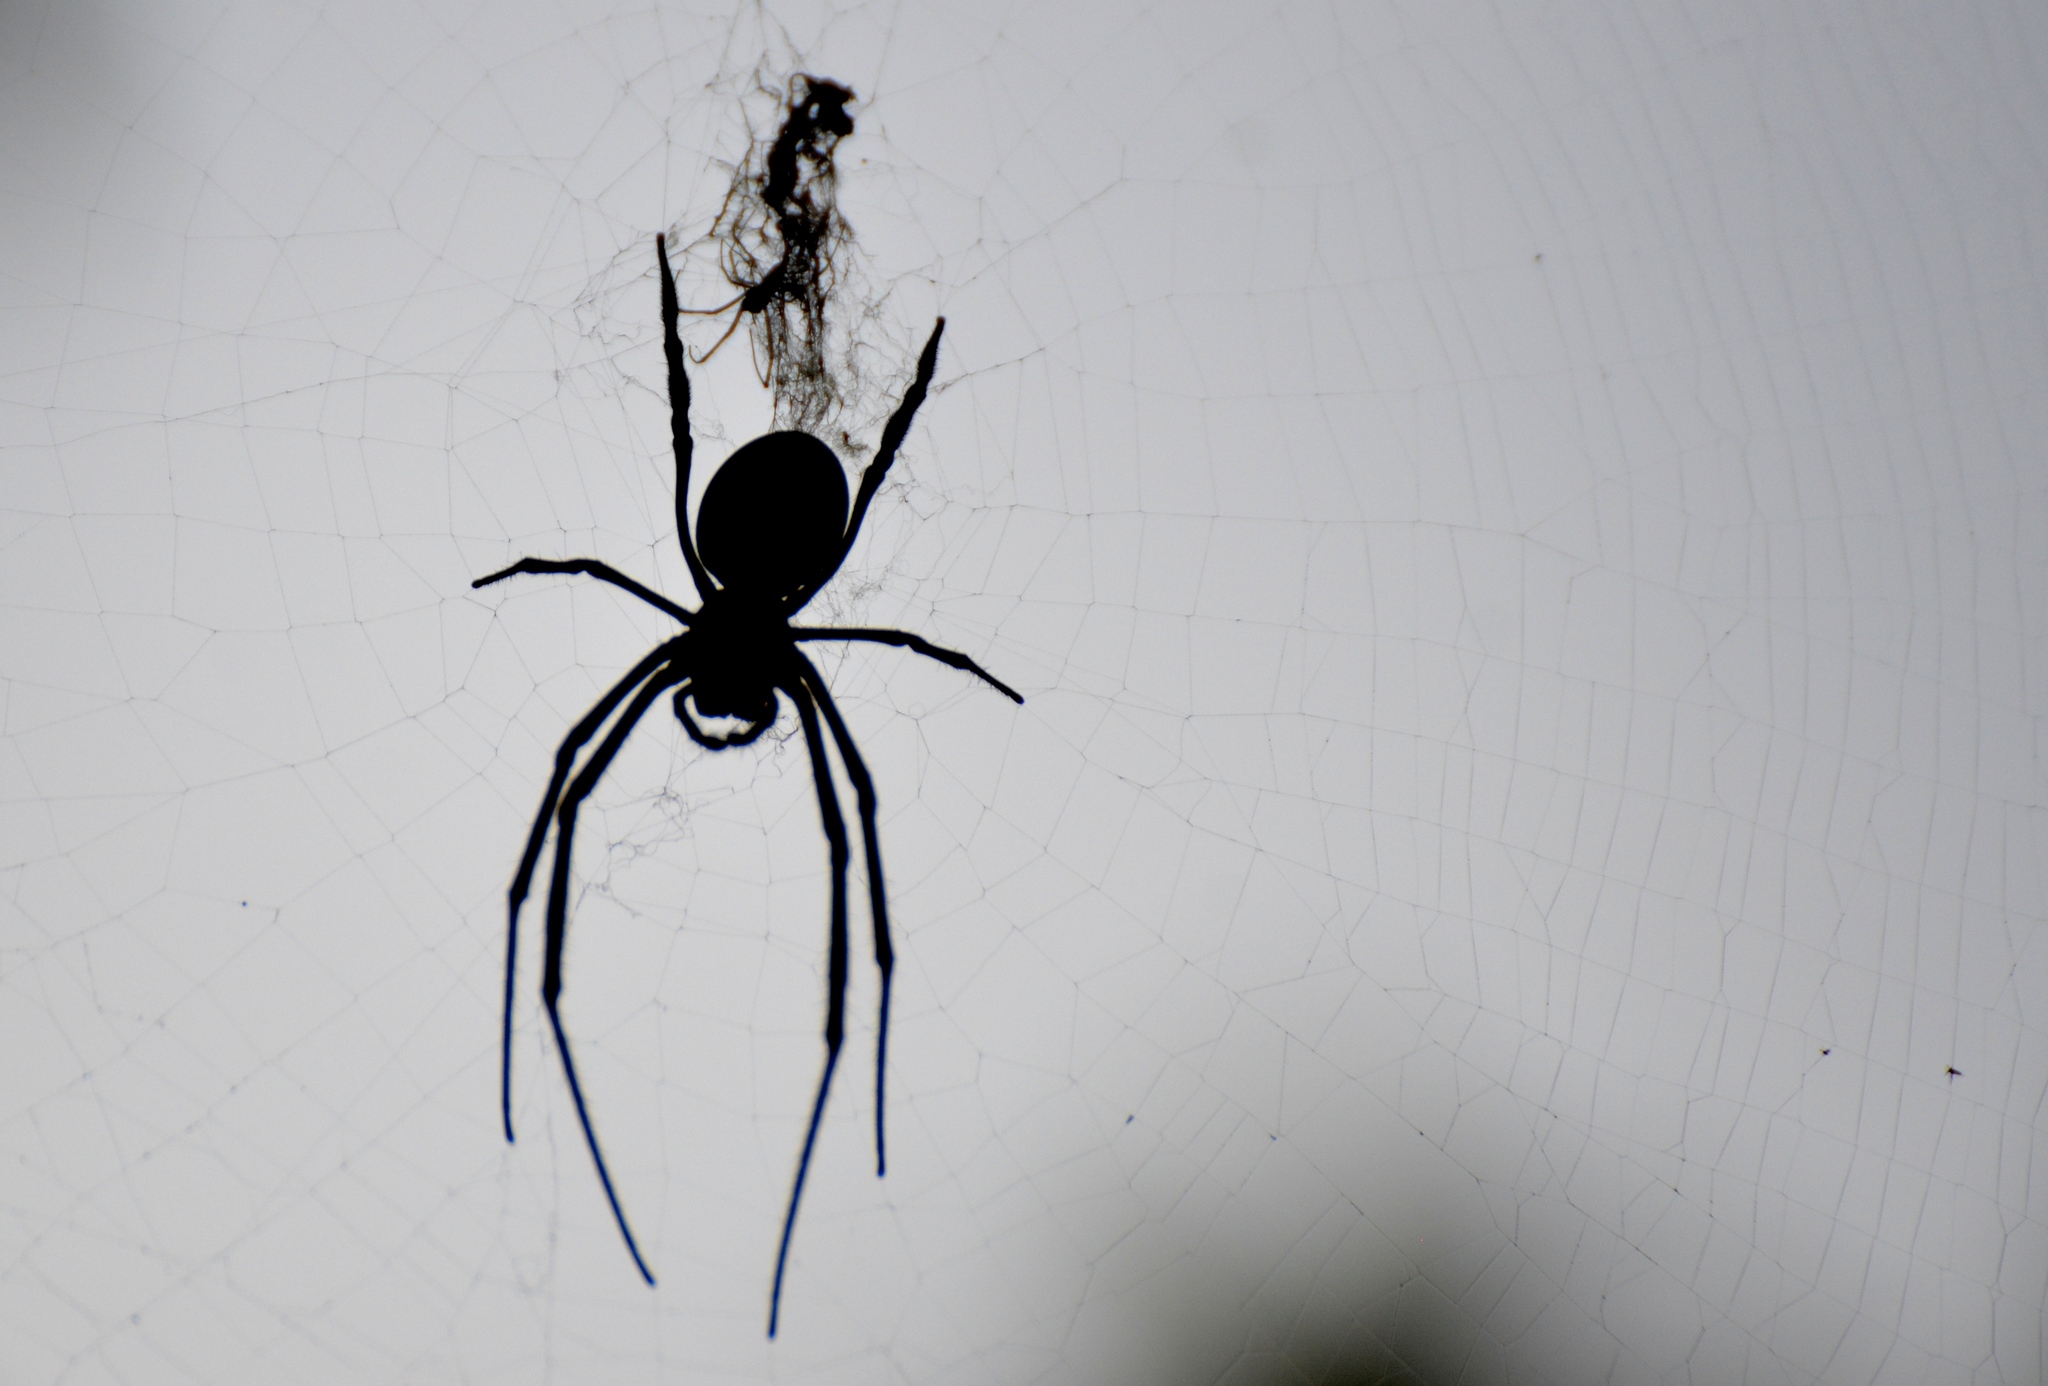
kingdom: Animalia
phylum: Arthropoda
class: Arachnida
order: Araneae
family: Araneidae
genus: Nephila
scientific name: Nephila tetragnathoides
